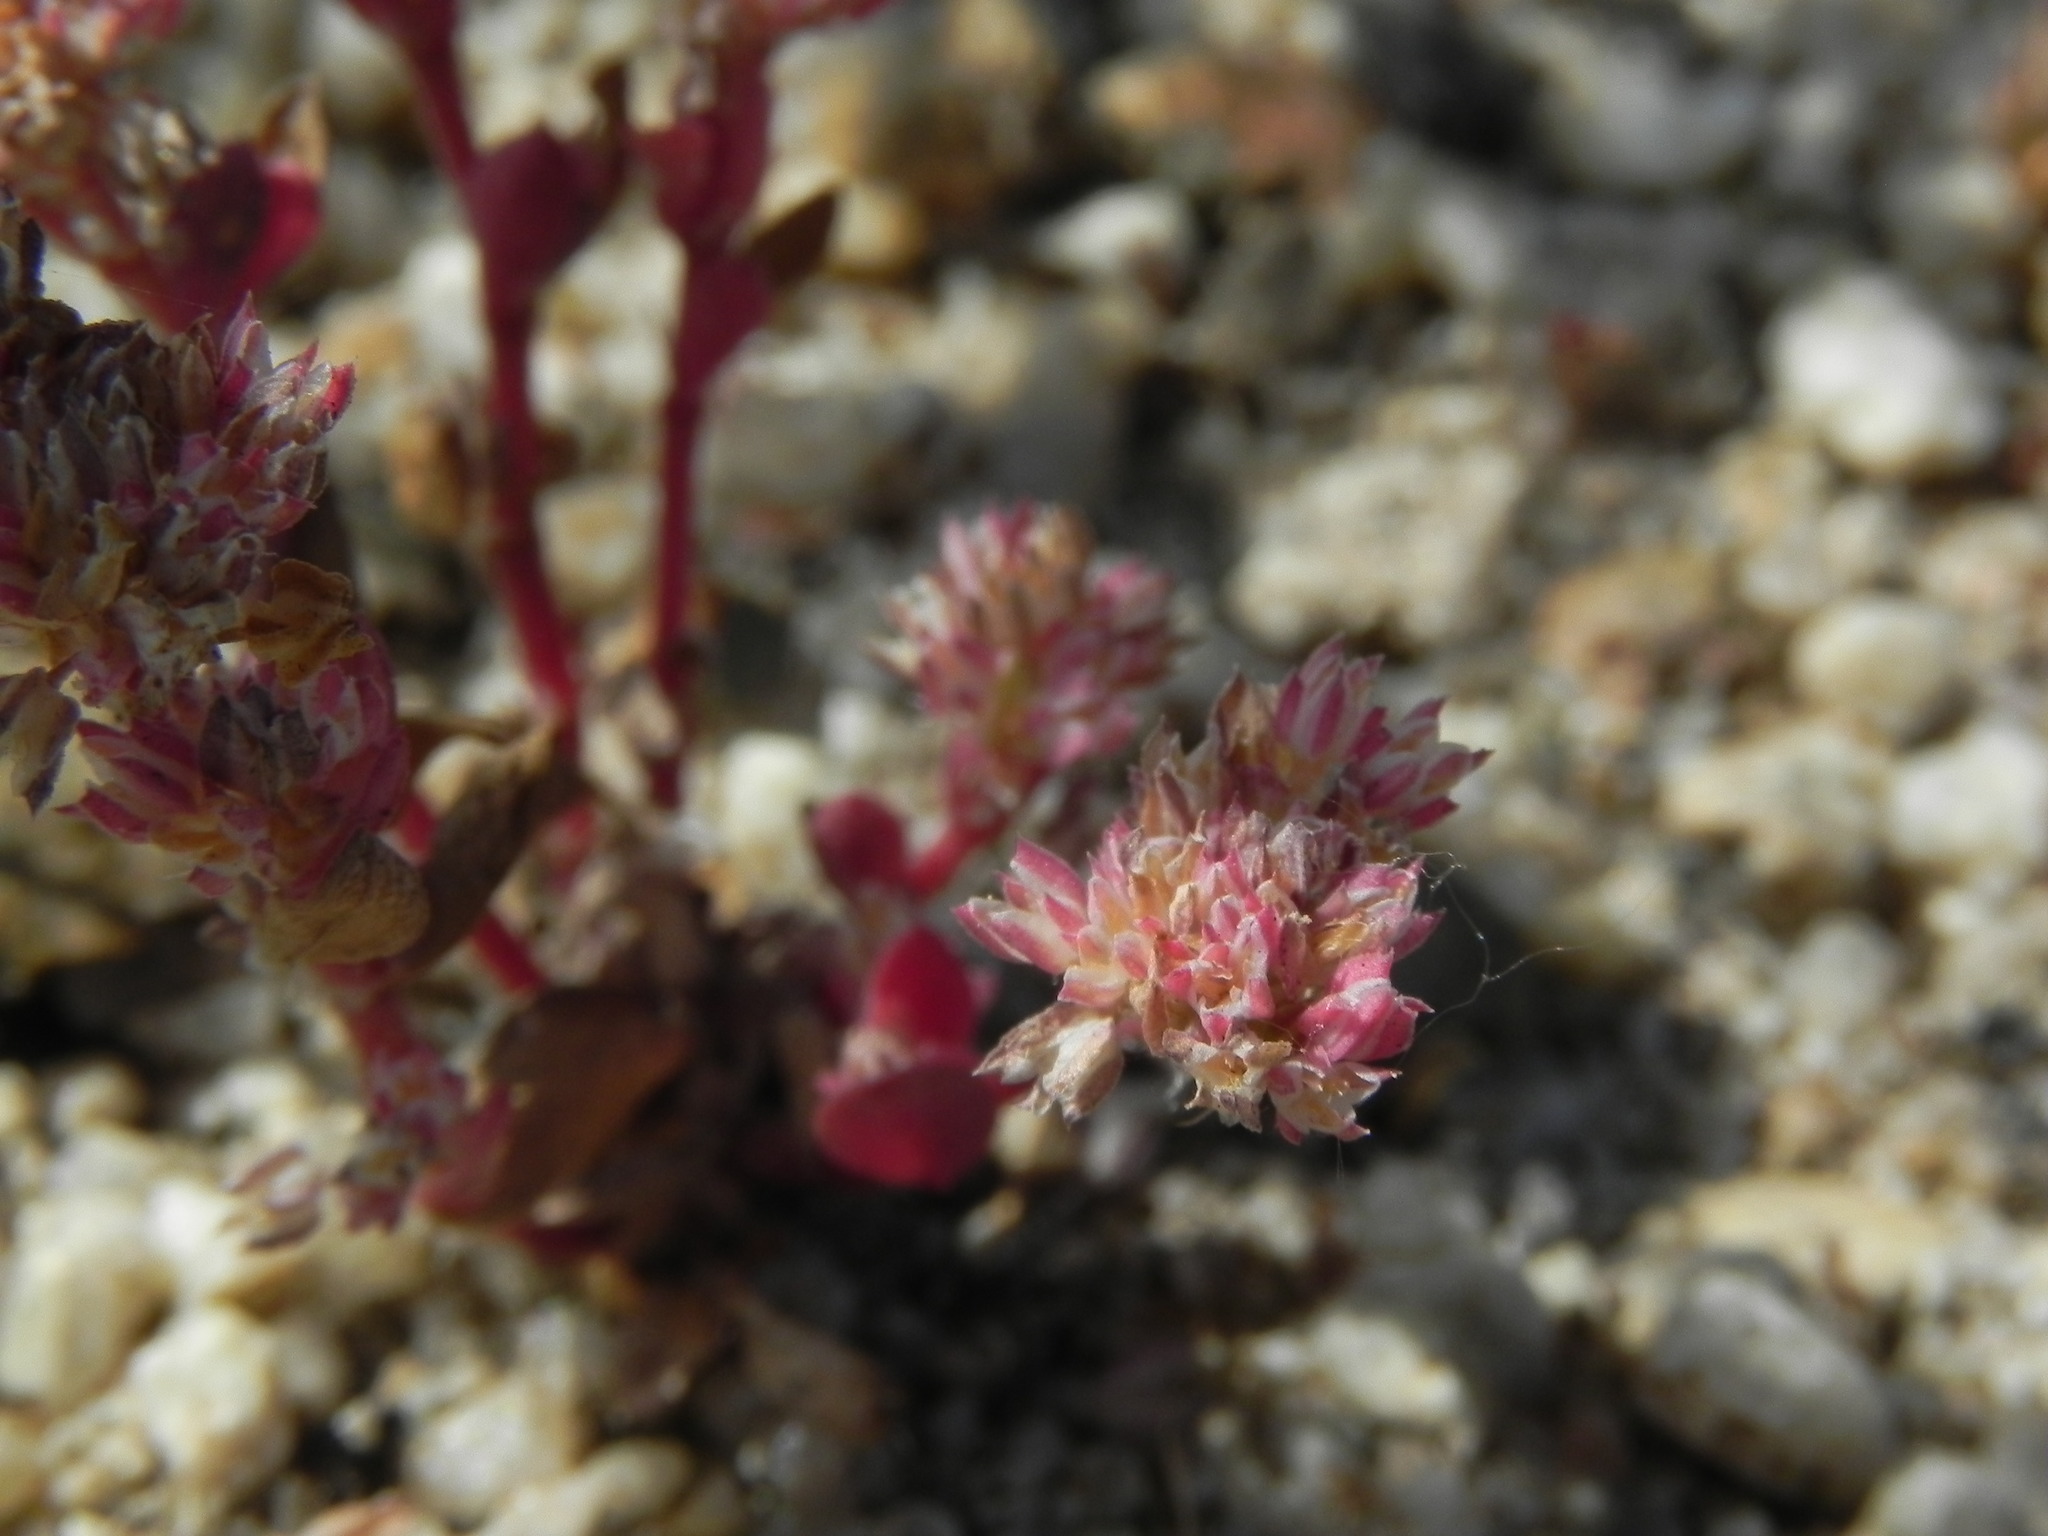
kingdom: Plantae
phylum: Tracheophyta
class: Magnoliopsida
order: Caryophyllales
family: Caryophyllaceae
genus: Polycarpon
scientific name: Polycarpon tetraphyllum
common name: Four-leaved all-seed
